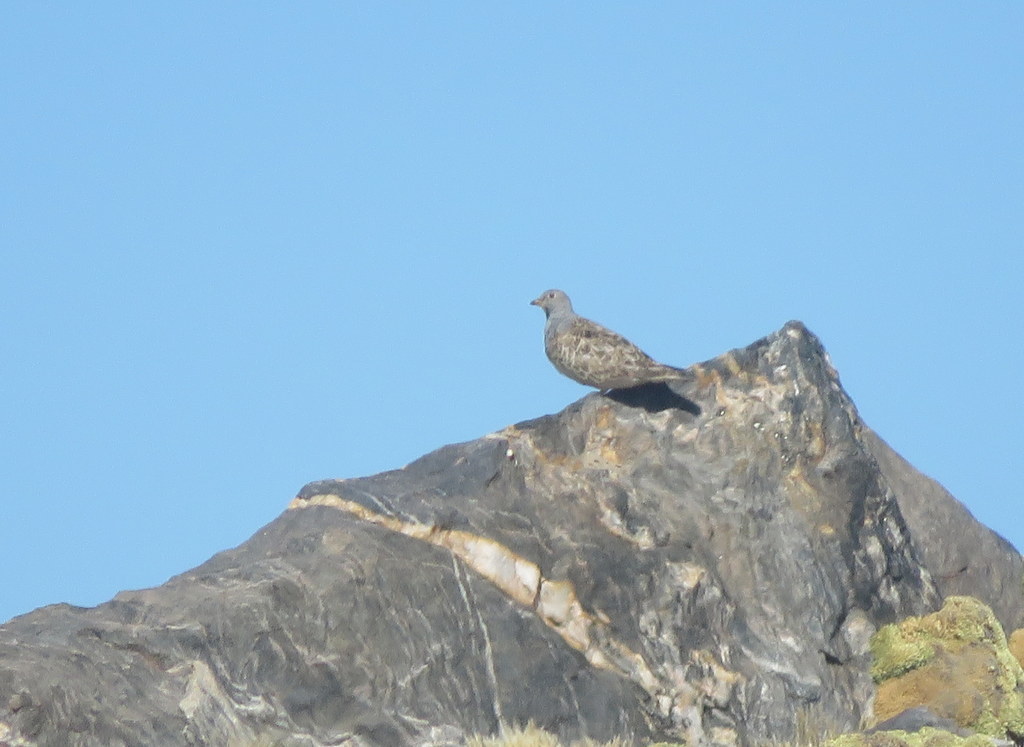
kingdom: Animalia
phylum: Chordata
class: Aves
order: Charadriiformes
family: Thinocoridae
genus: Thinocorus
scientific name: Thinocorus orbignyianus
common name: Grey-breasted seedsnipe
